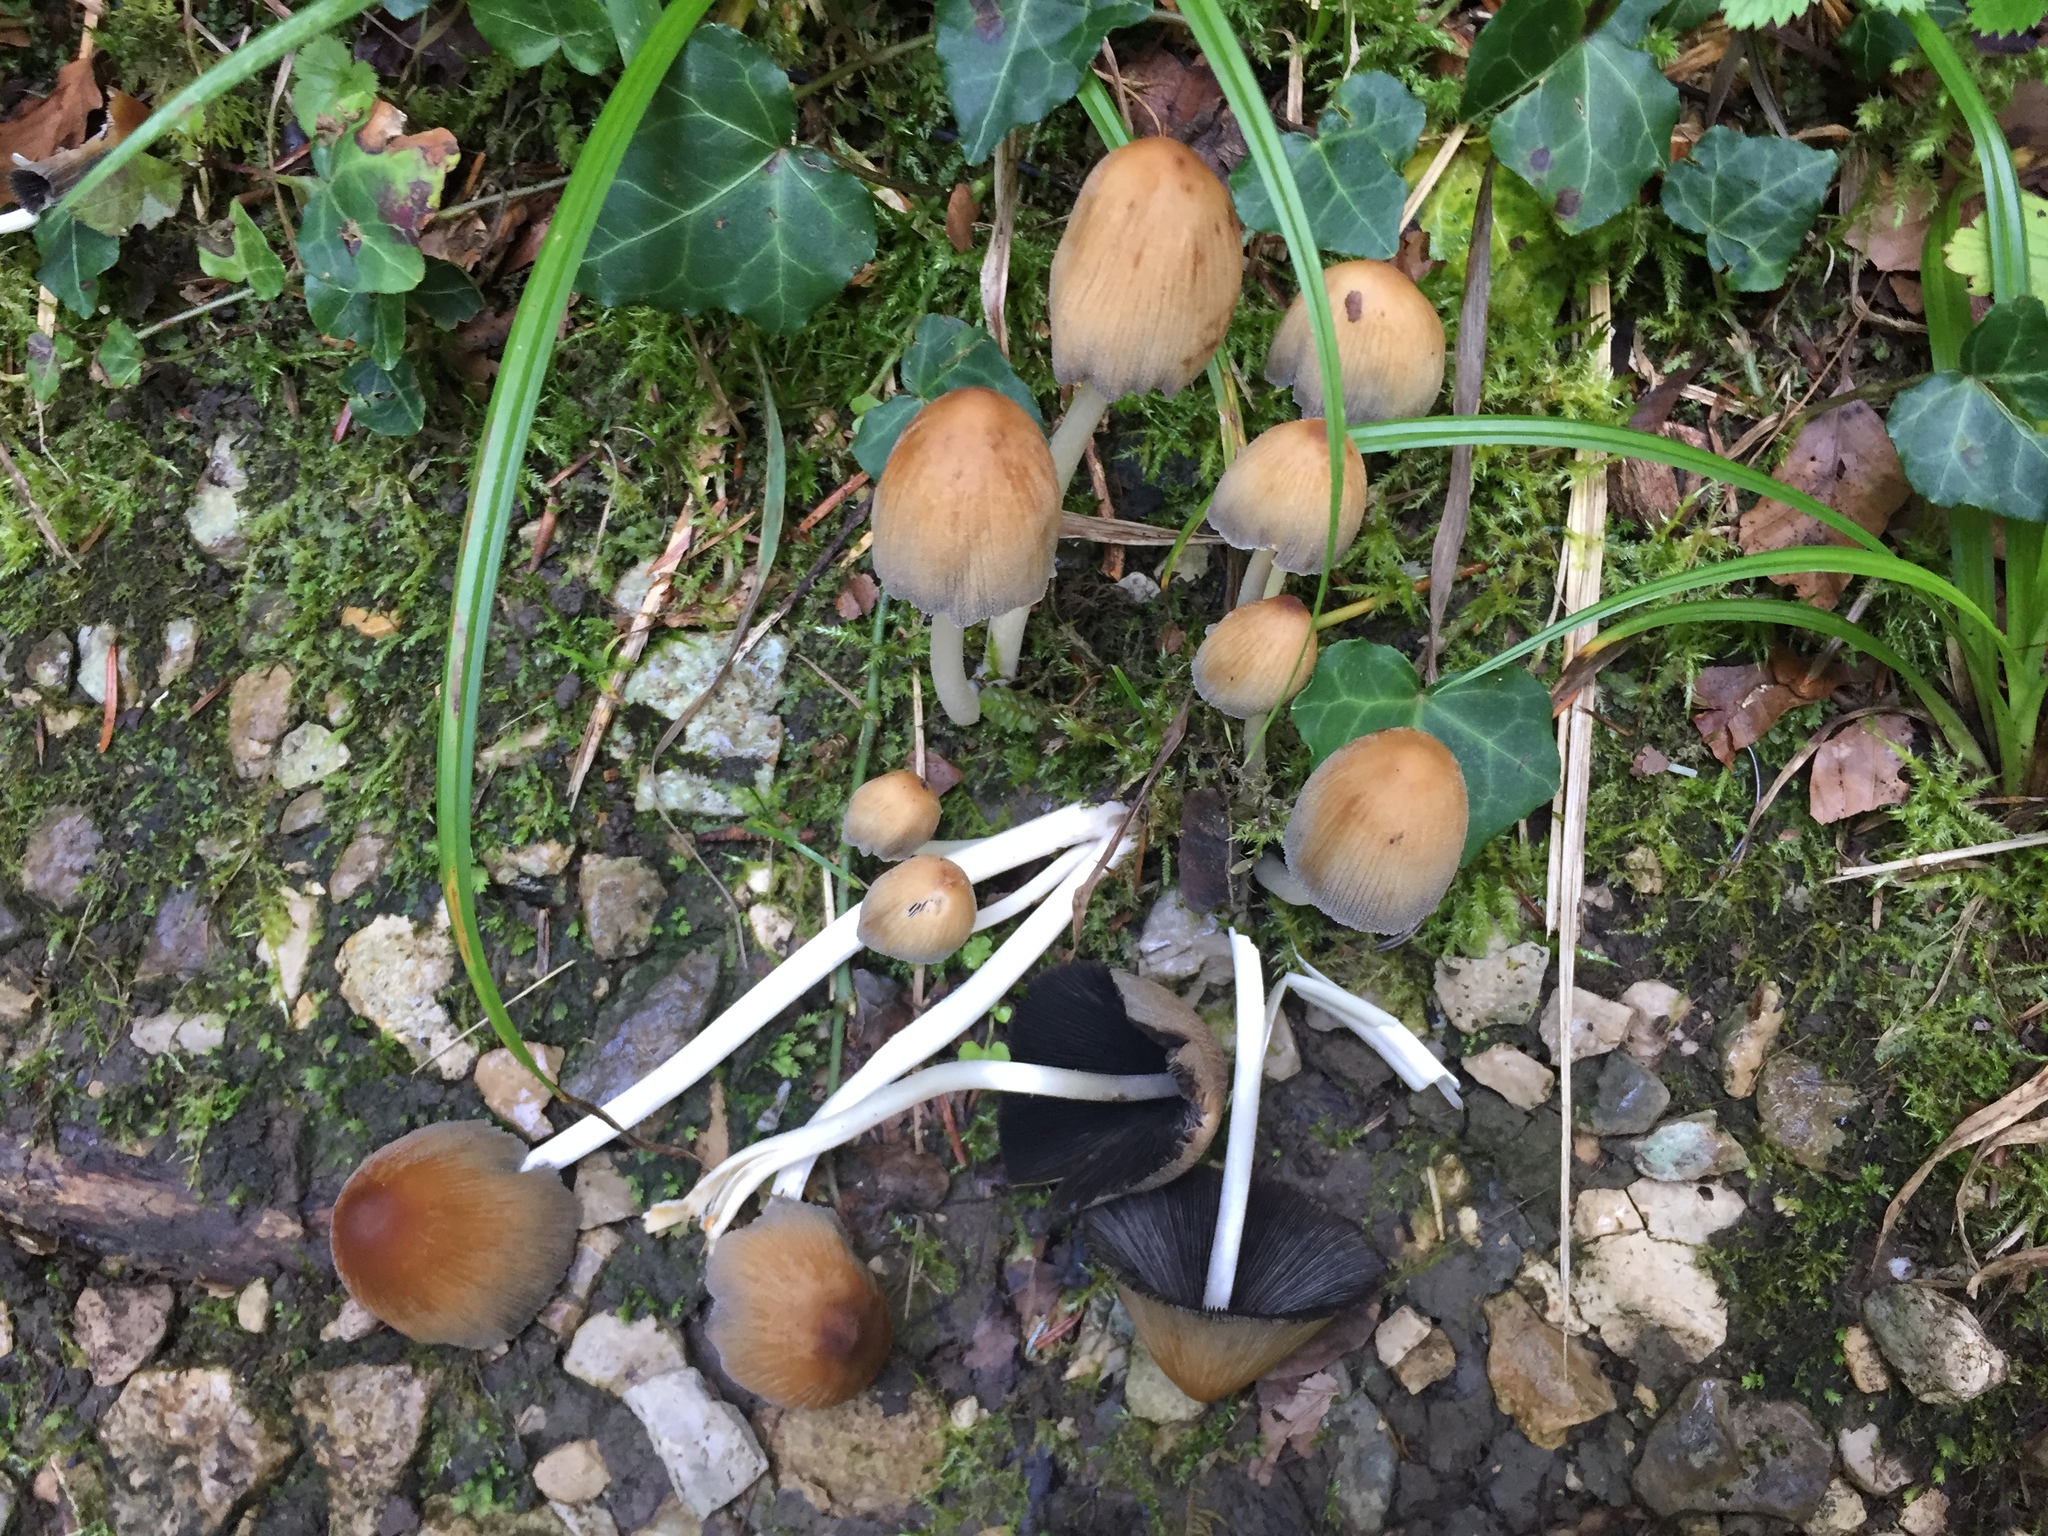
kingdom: Fungi
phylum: Basidiomycota
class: Agaricomycetes
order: Agaricales
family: Psathyrellaceae
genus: Coprinellus
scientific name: Coprinellus micaceus
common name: Glistening ink-cap
